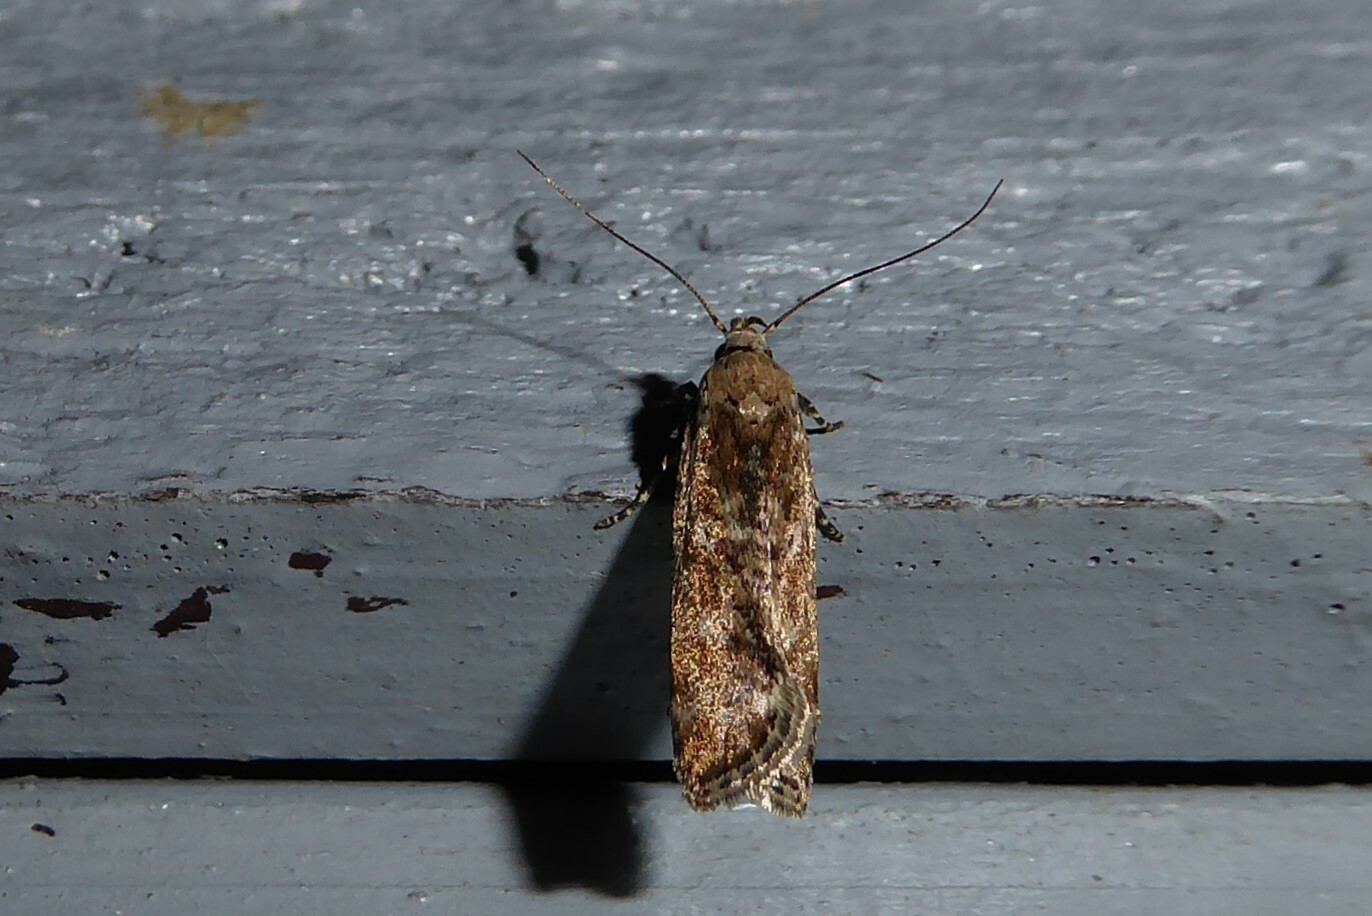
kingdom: Animalia
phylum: Arthropoda
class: Insecta
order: Lepidoptera
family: Gelechiidae
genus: Anisoplaca
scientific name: Anisoplaca achyrota
